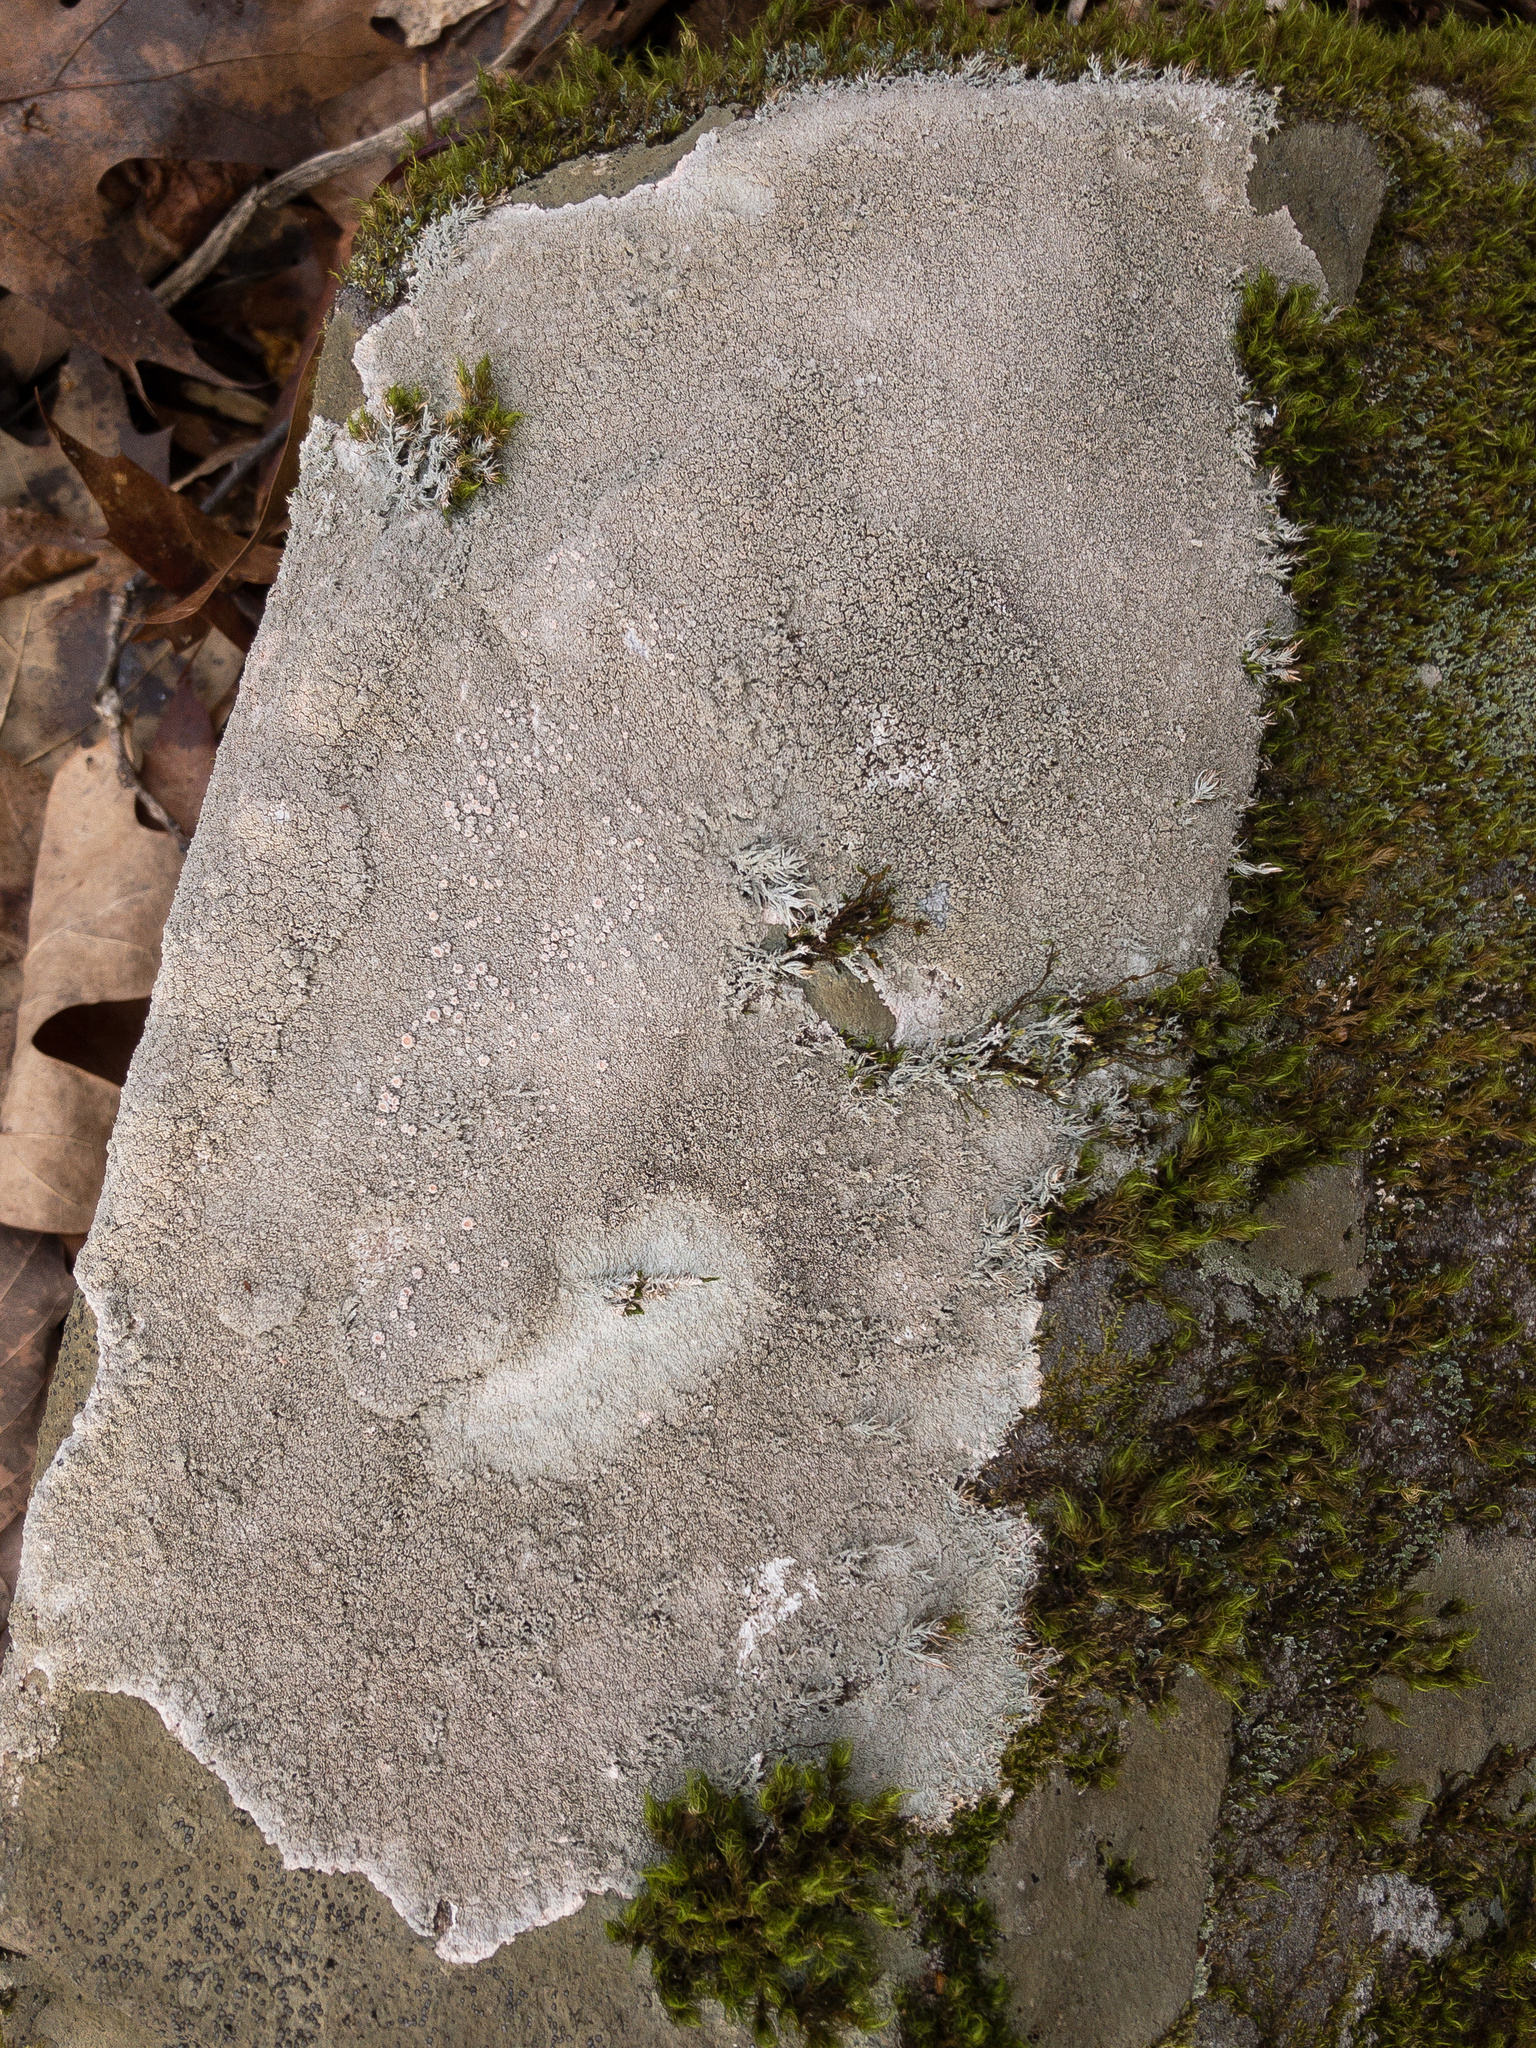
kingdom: Fungi
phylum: Ascomycota
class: Lecanoromycetes
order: Pertusariales
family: Ochrolechiaceae
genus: Ochrolechia
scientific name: Ochrolechia yasudae
